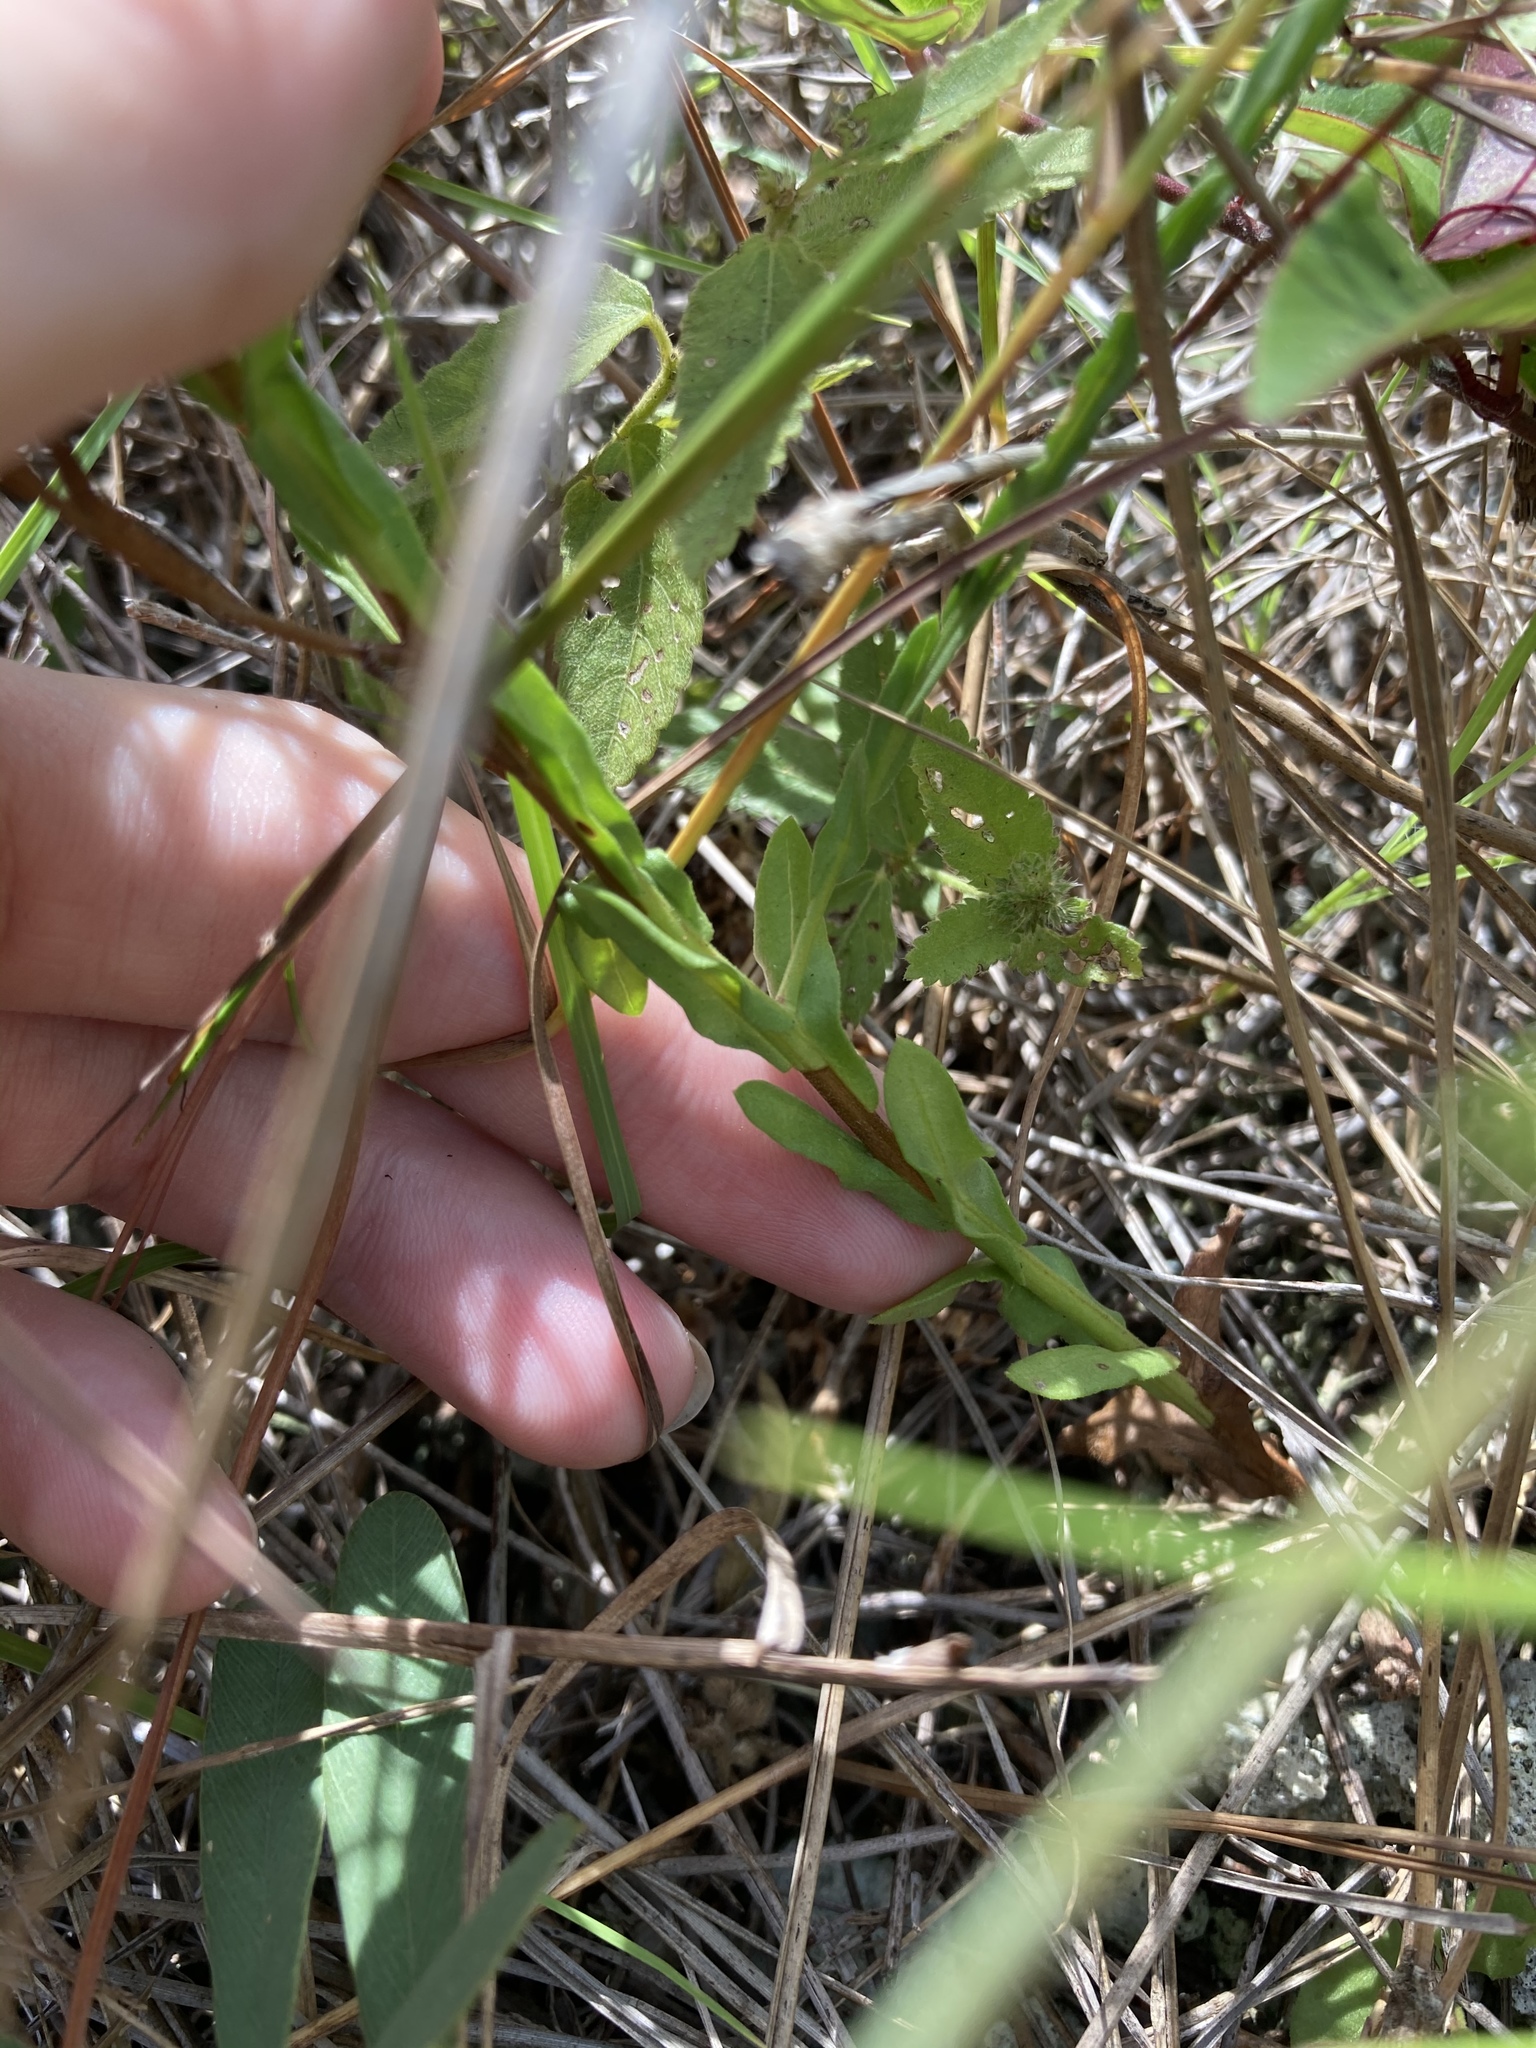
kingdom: Plantae
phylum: Tracheophyta
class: Magnoliopsida
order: Asterales
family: Asteraceae
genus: Symphyotrichum
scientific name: Symphyotrichum adnatum
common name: Scale-leaf aster
